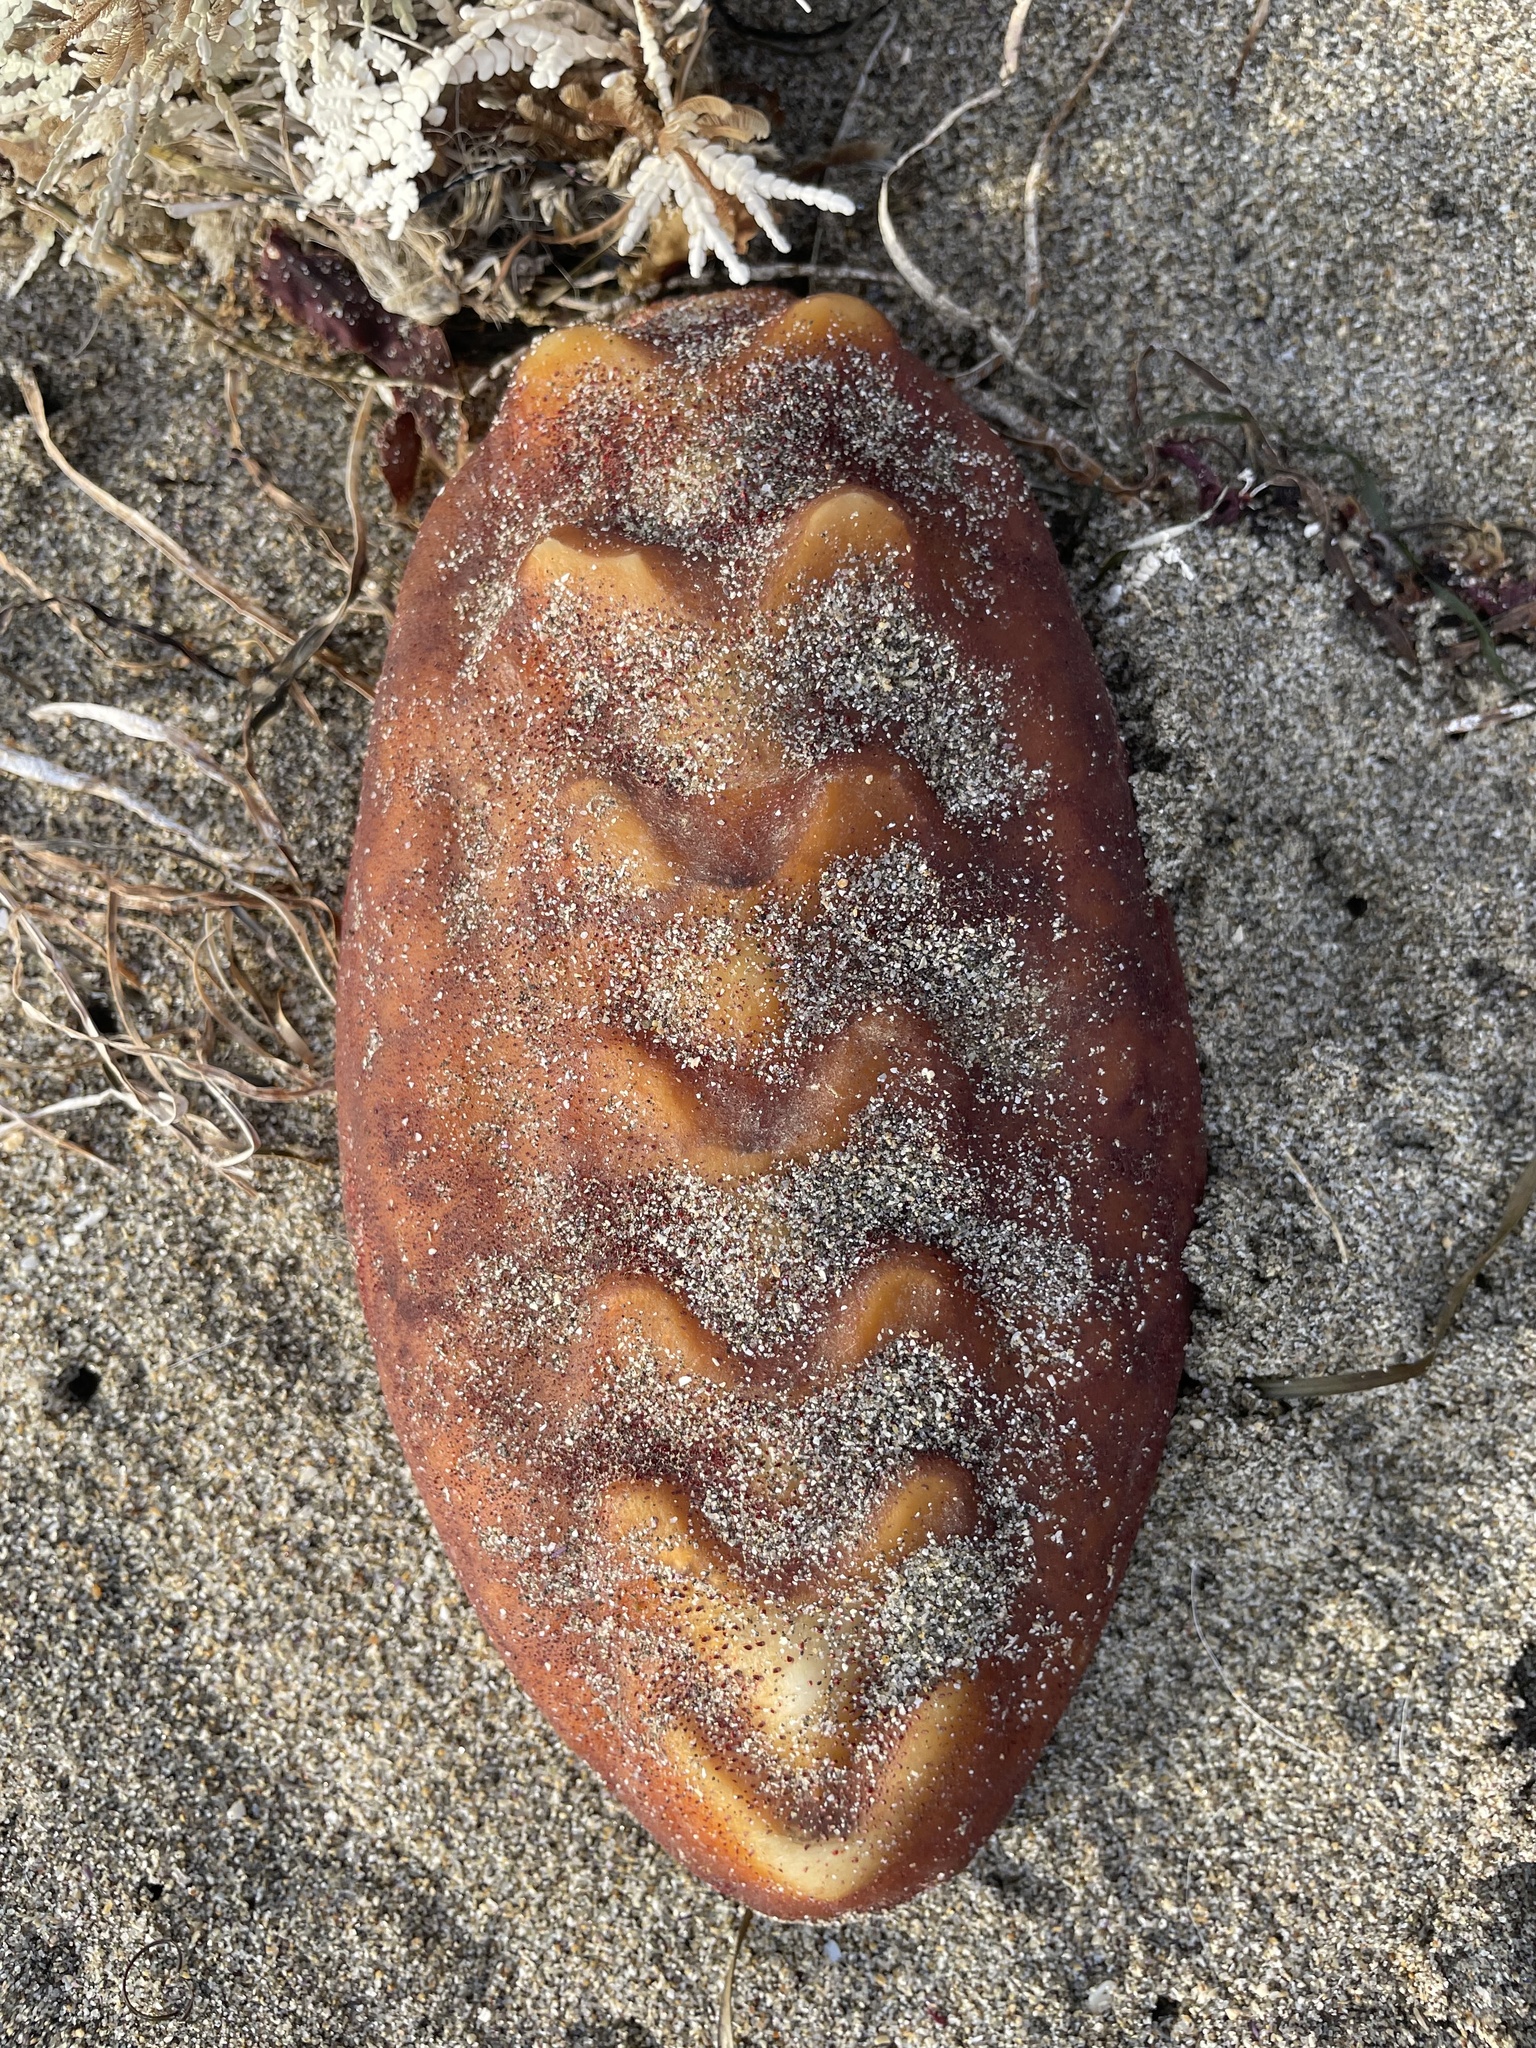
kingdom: Animalia
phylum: Mollusca
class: Polyplacophora
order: Chitonida
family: Acanthochitonidae
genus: Cryptochiton
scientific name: Cryptochiton stelleri
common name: Giant pacific chiton
